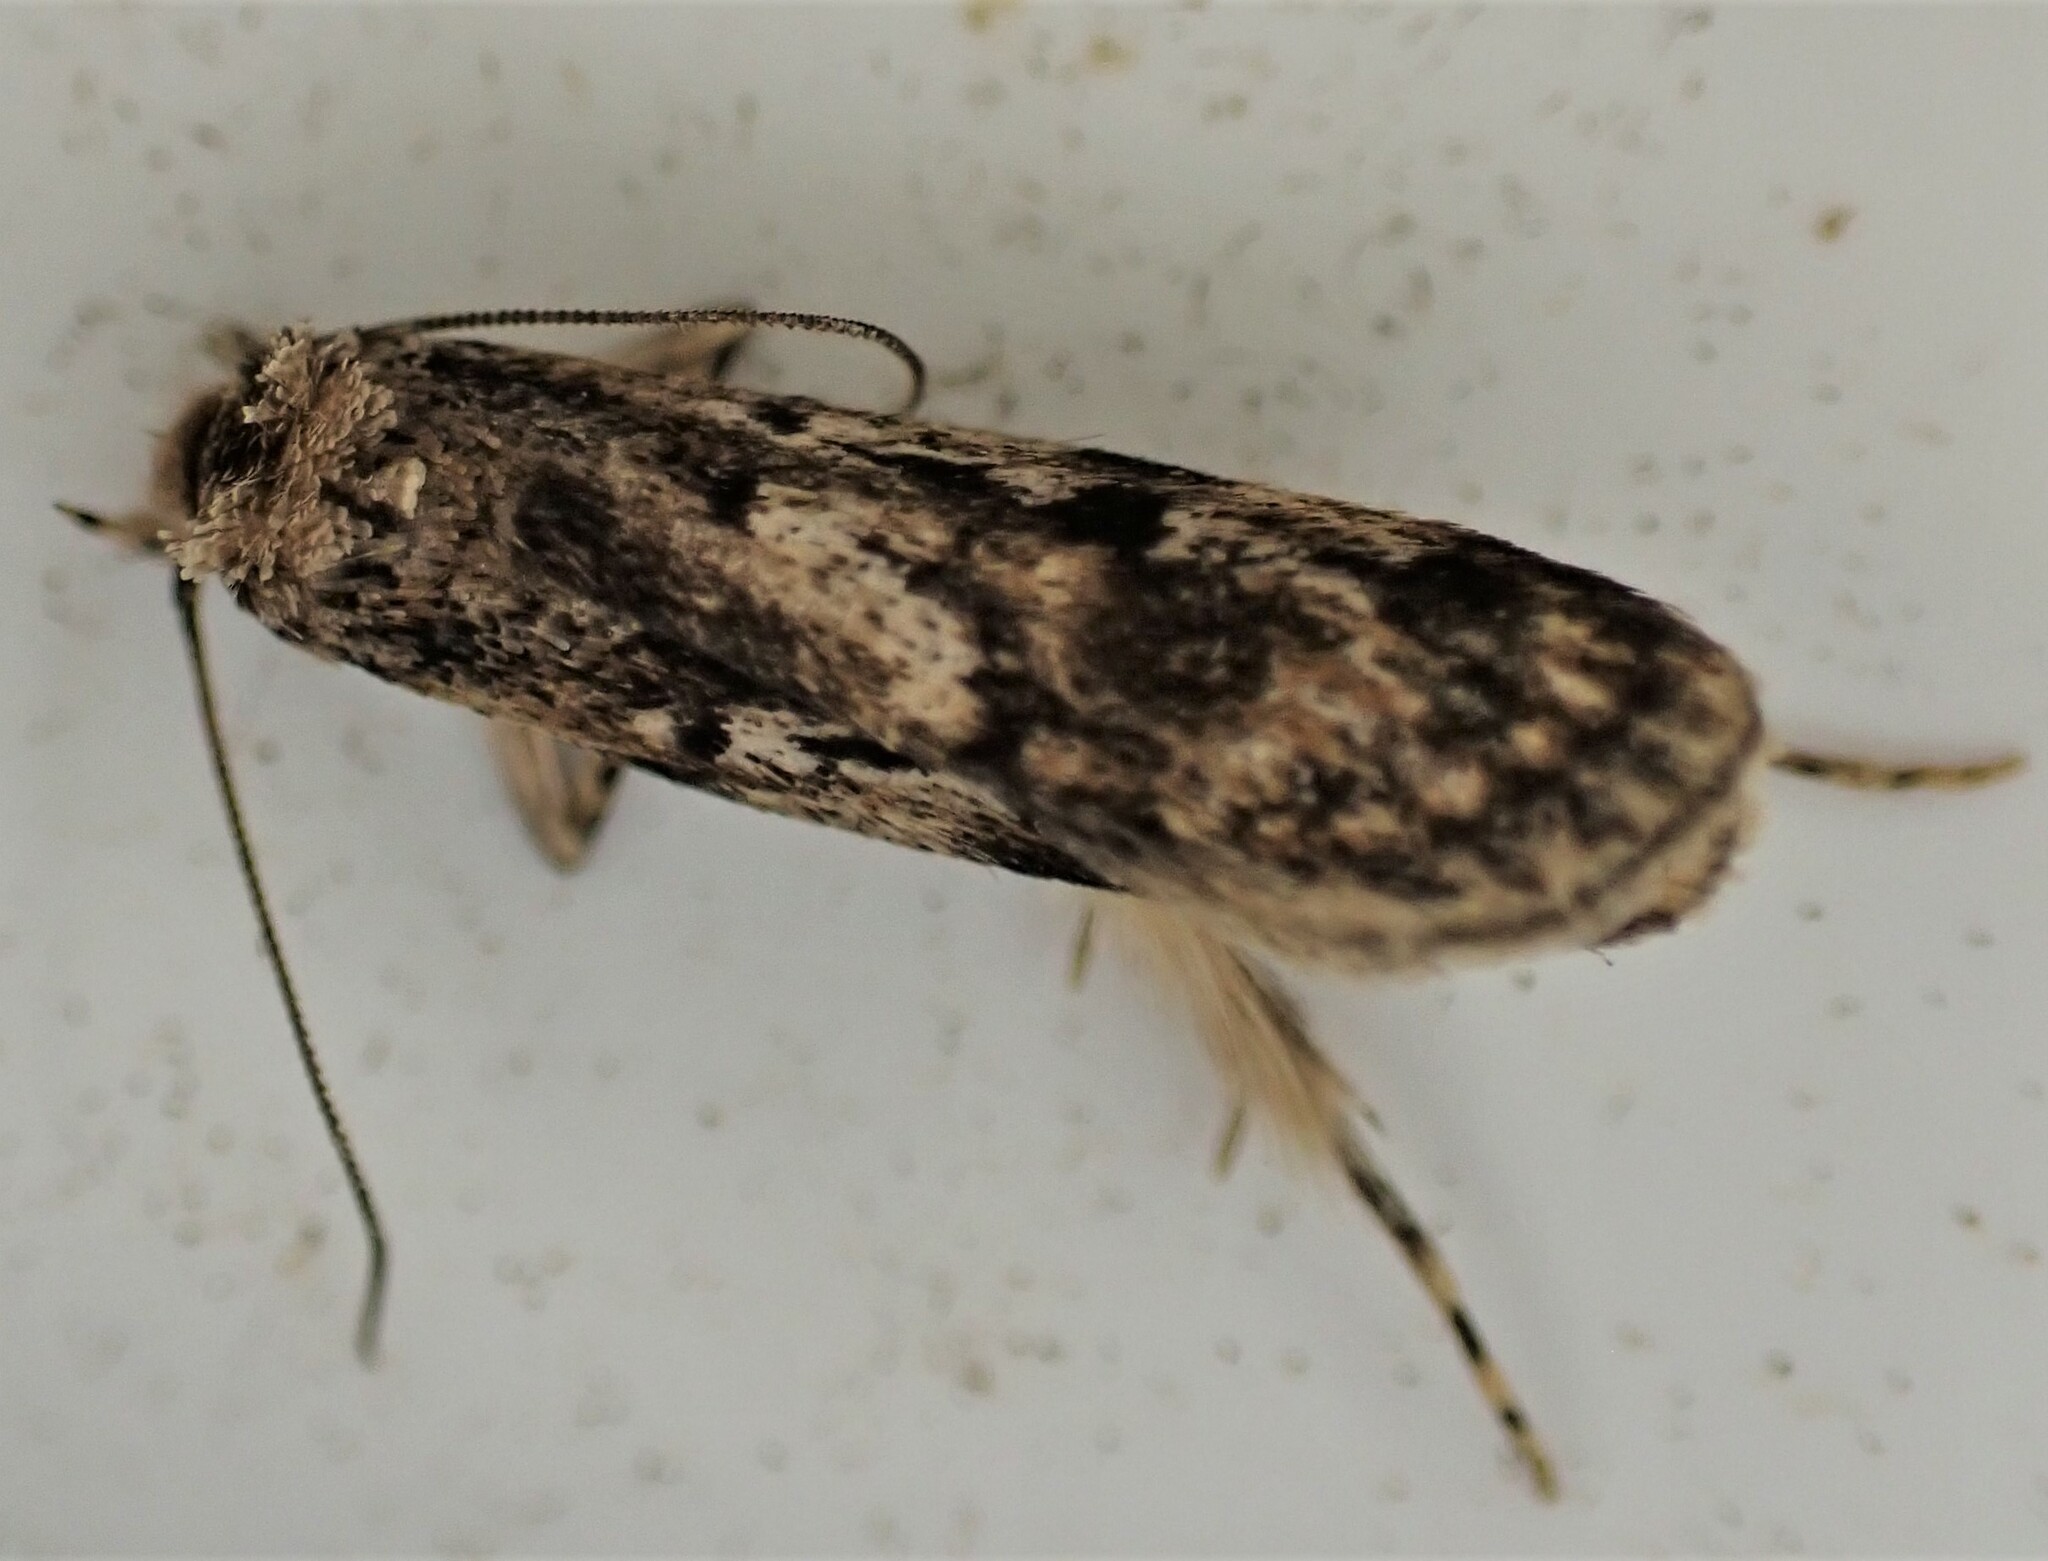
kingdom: Animalia
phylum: Arthropoda
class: Insecta
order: Lepidoptera
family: Oecophoridae
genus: Barea
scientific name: Barea exarcha
